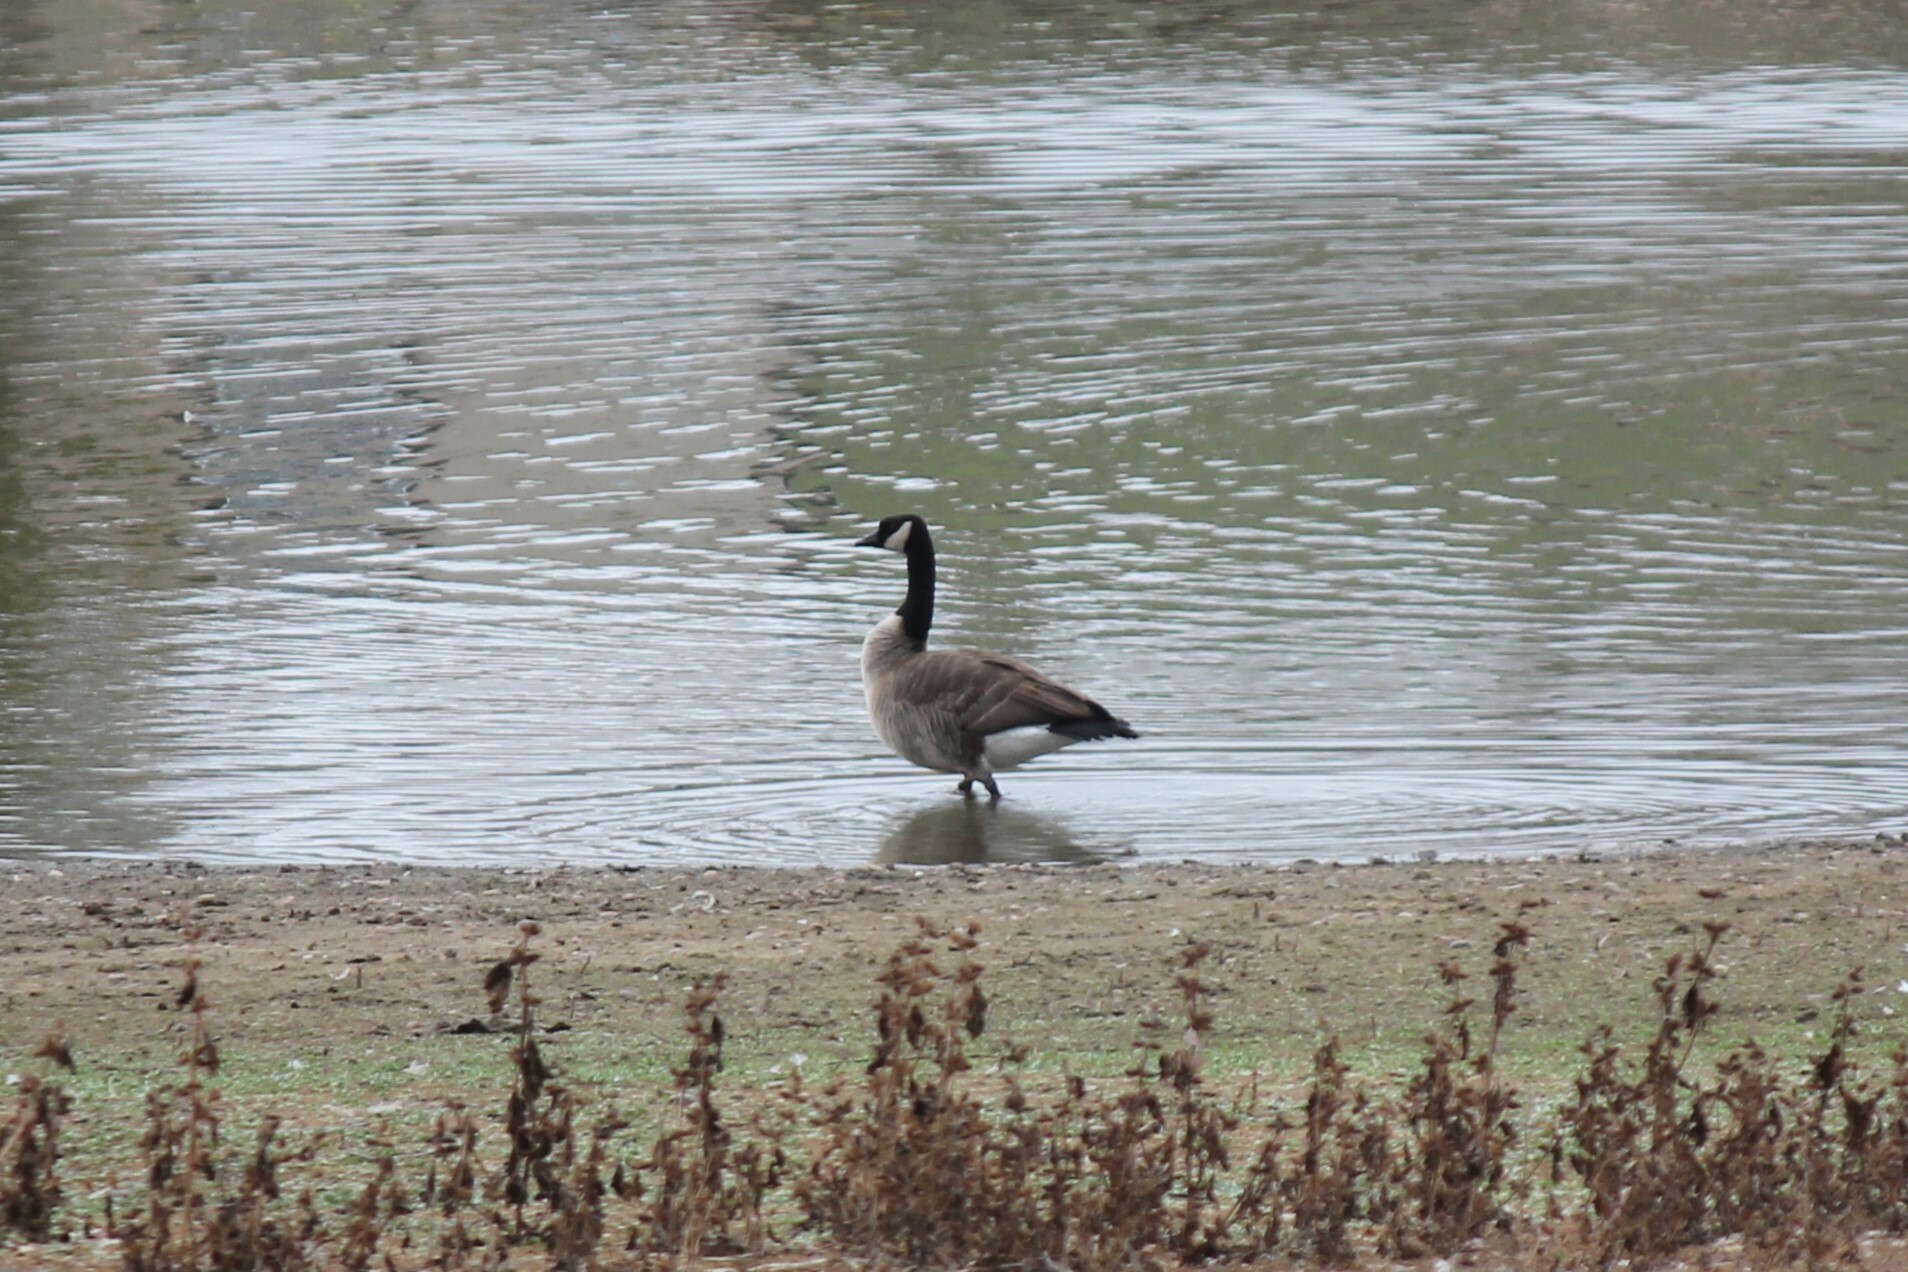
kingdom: Animalia
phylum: Chordata
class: Aves
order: Anseriformes
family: Anatidae
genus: Branta
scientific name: Branta canadensis
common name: Canada goose
